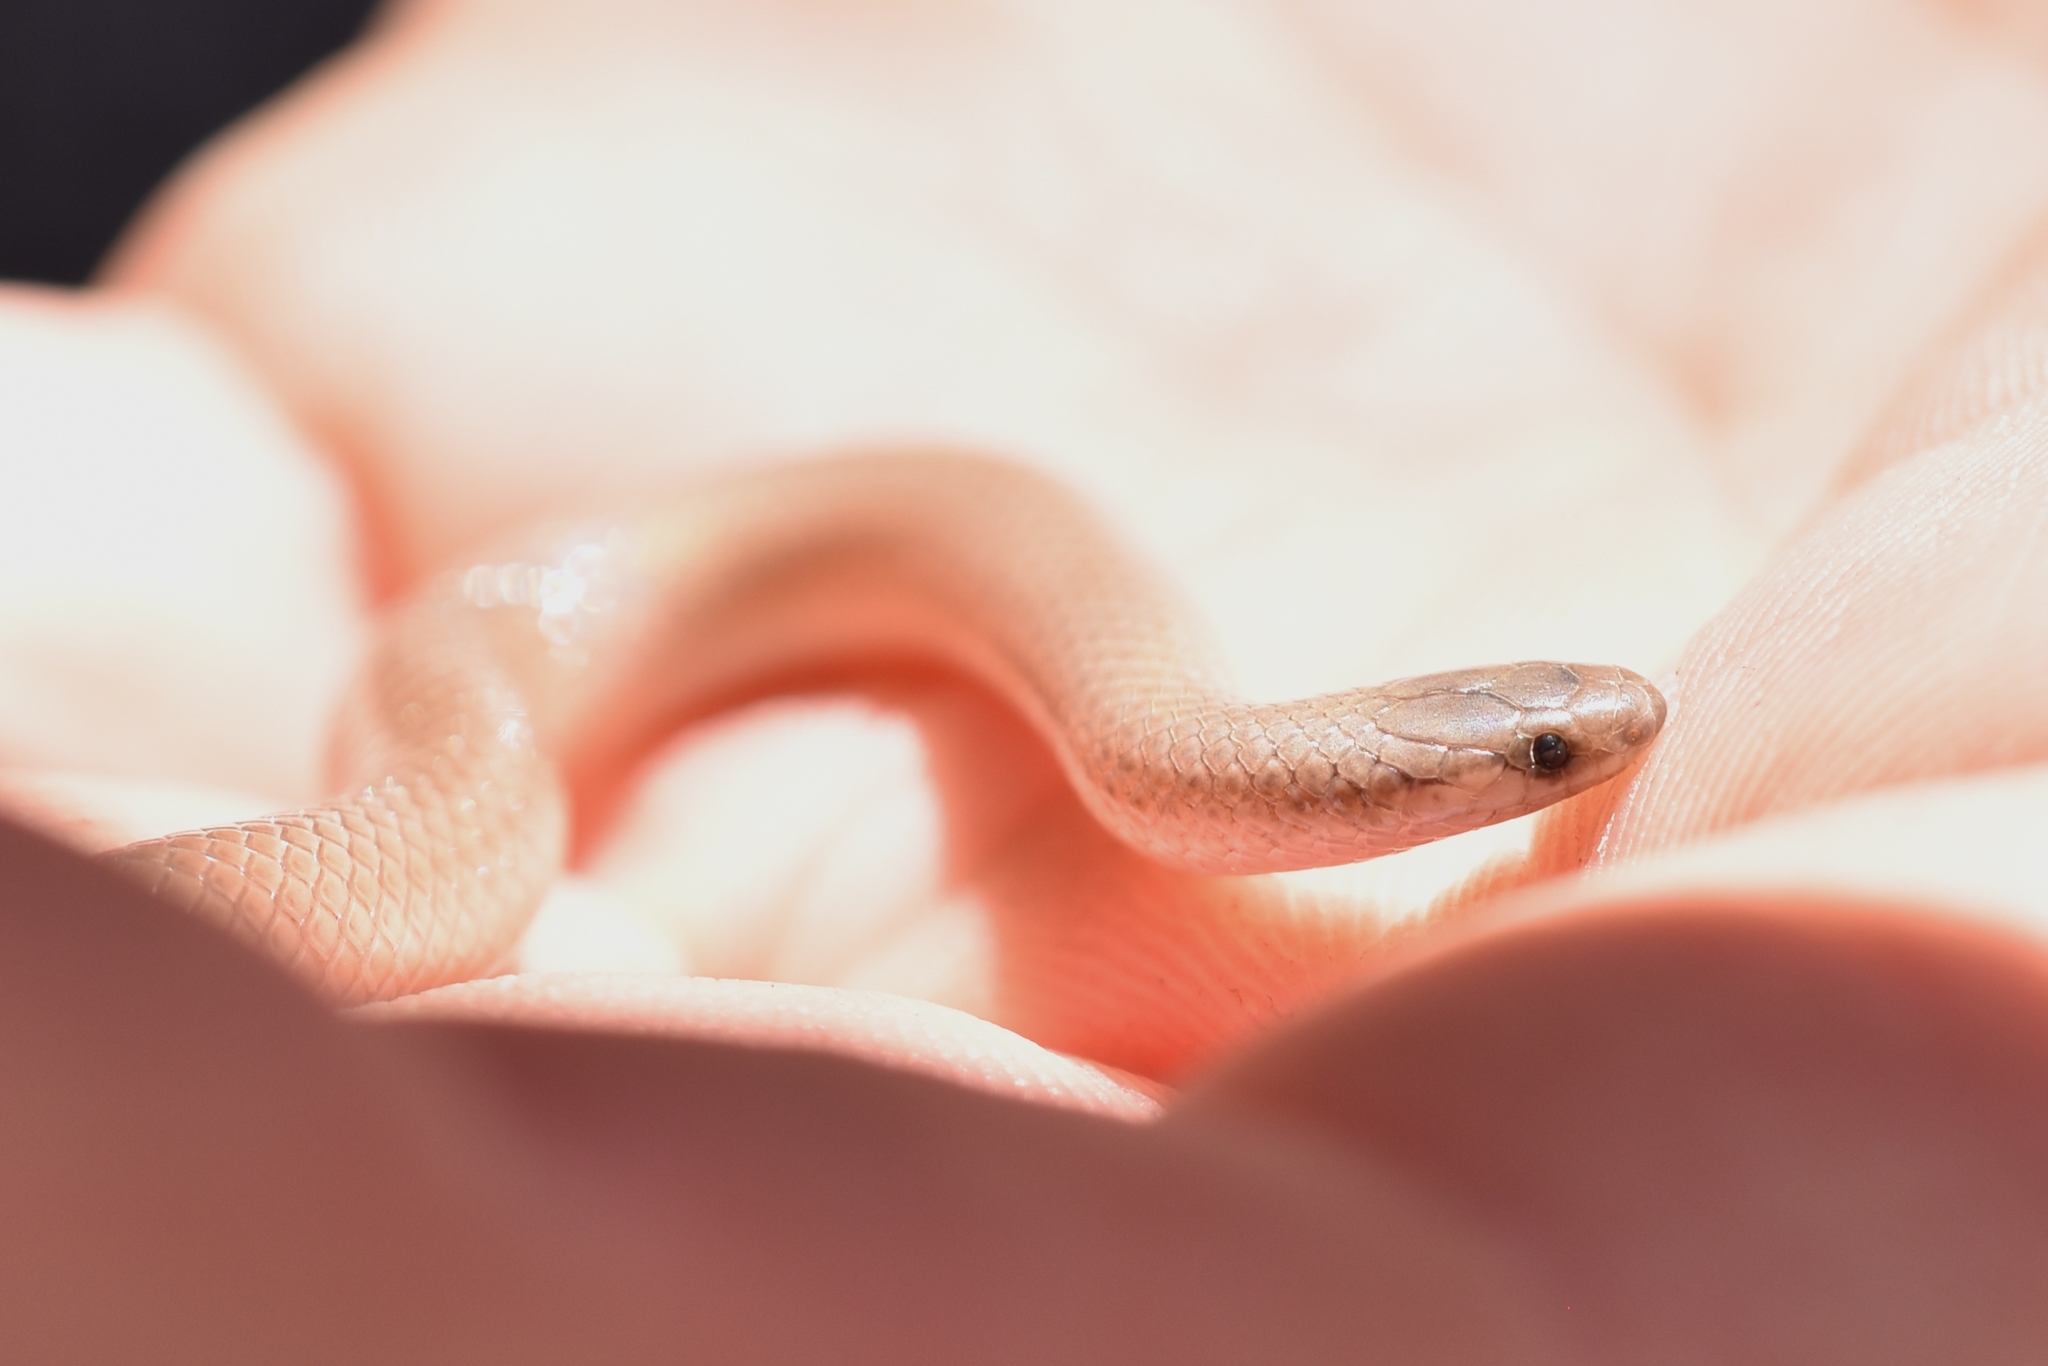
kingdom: Animalia
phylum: Chordata
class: Squamata
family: Colubridae
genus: Tantilla
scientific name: Tantilla gracilis
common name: Flathead snake
